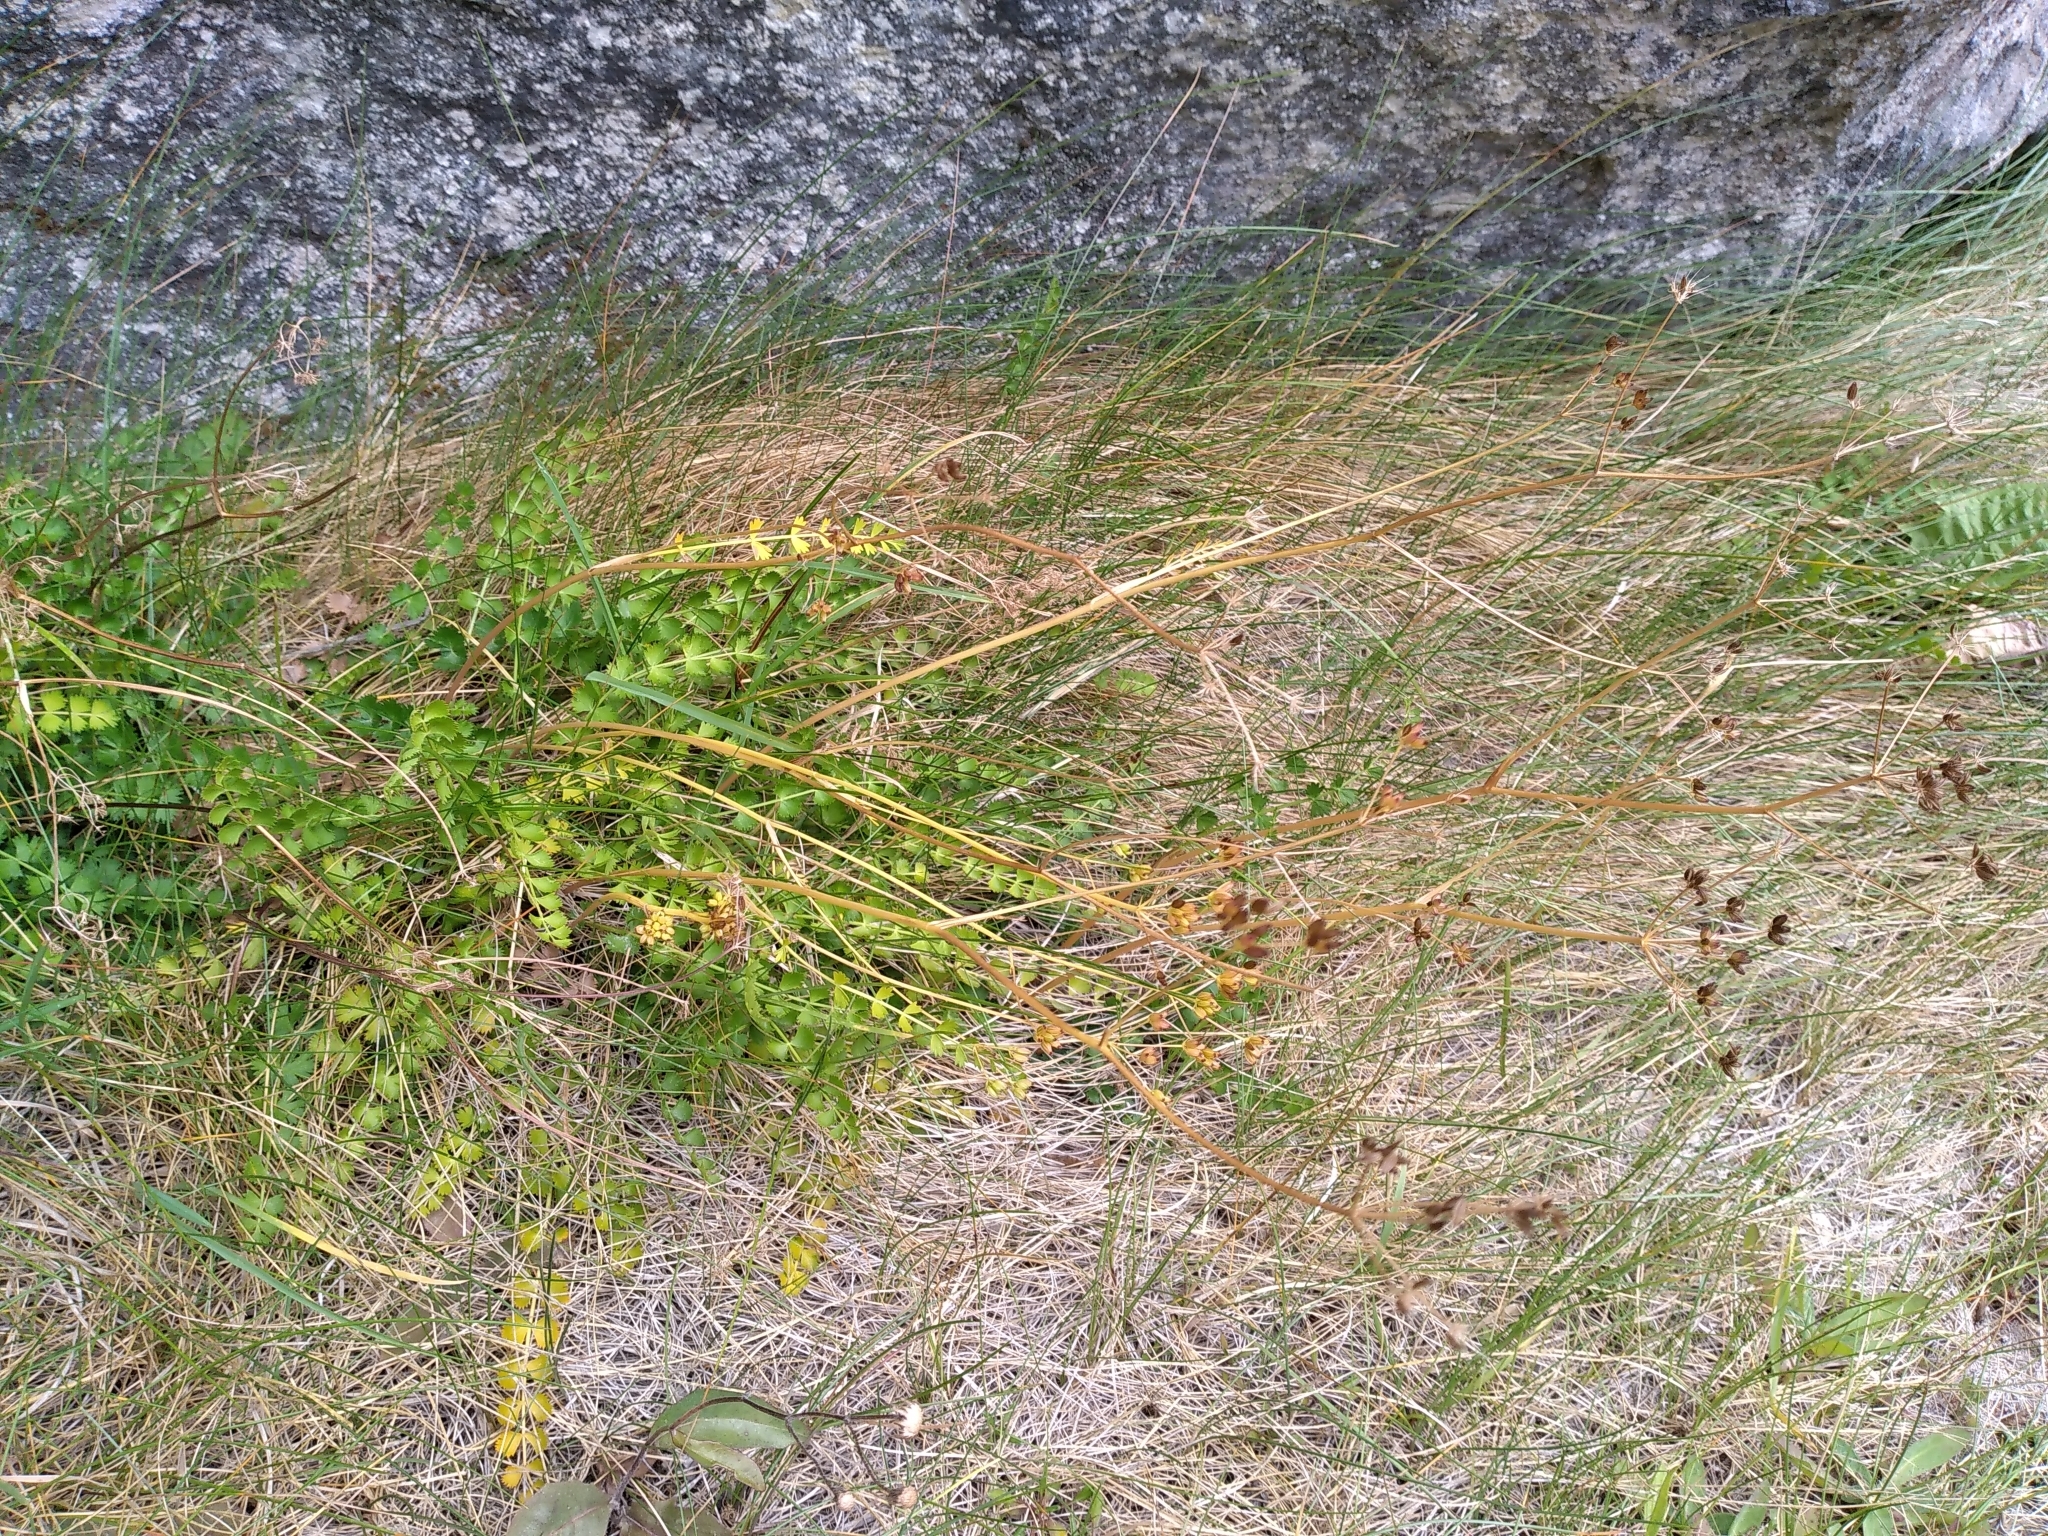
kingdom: Plantae
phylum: Tracheophyta
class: Magnoliopsida
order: Apiales
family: Apiaceae
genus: Anisotome
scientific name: Anisotome aromatica
